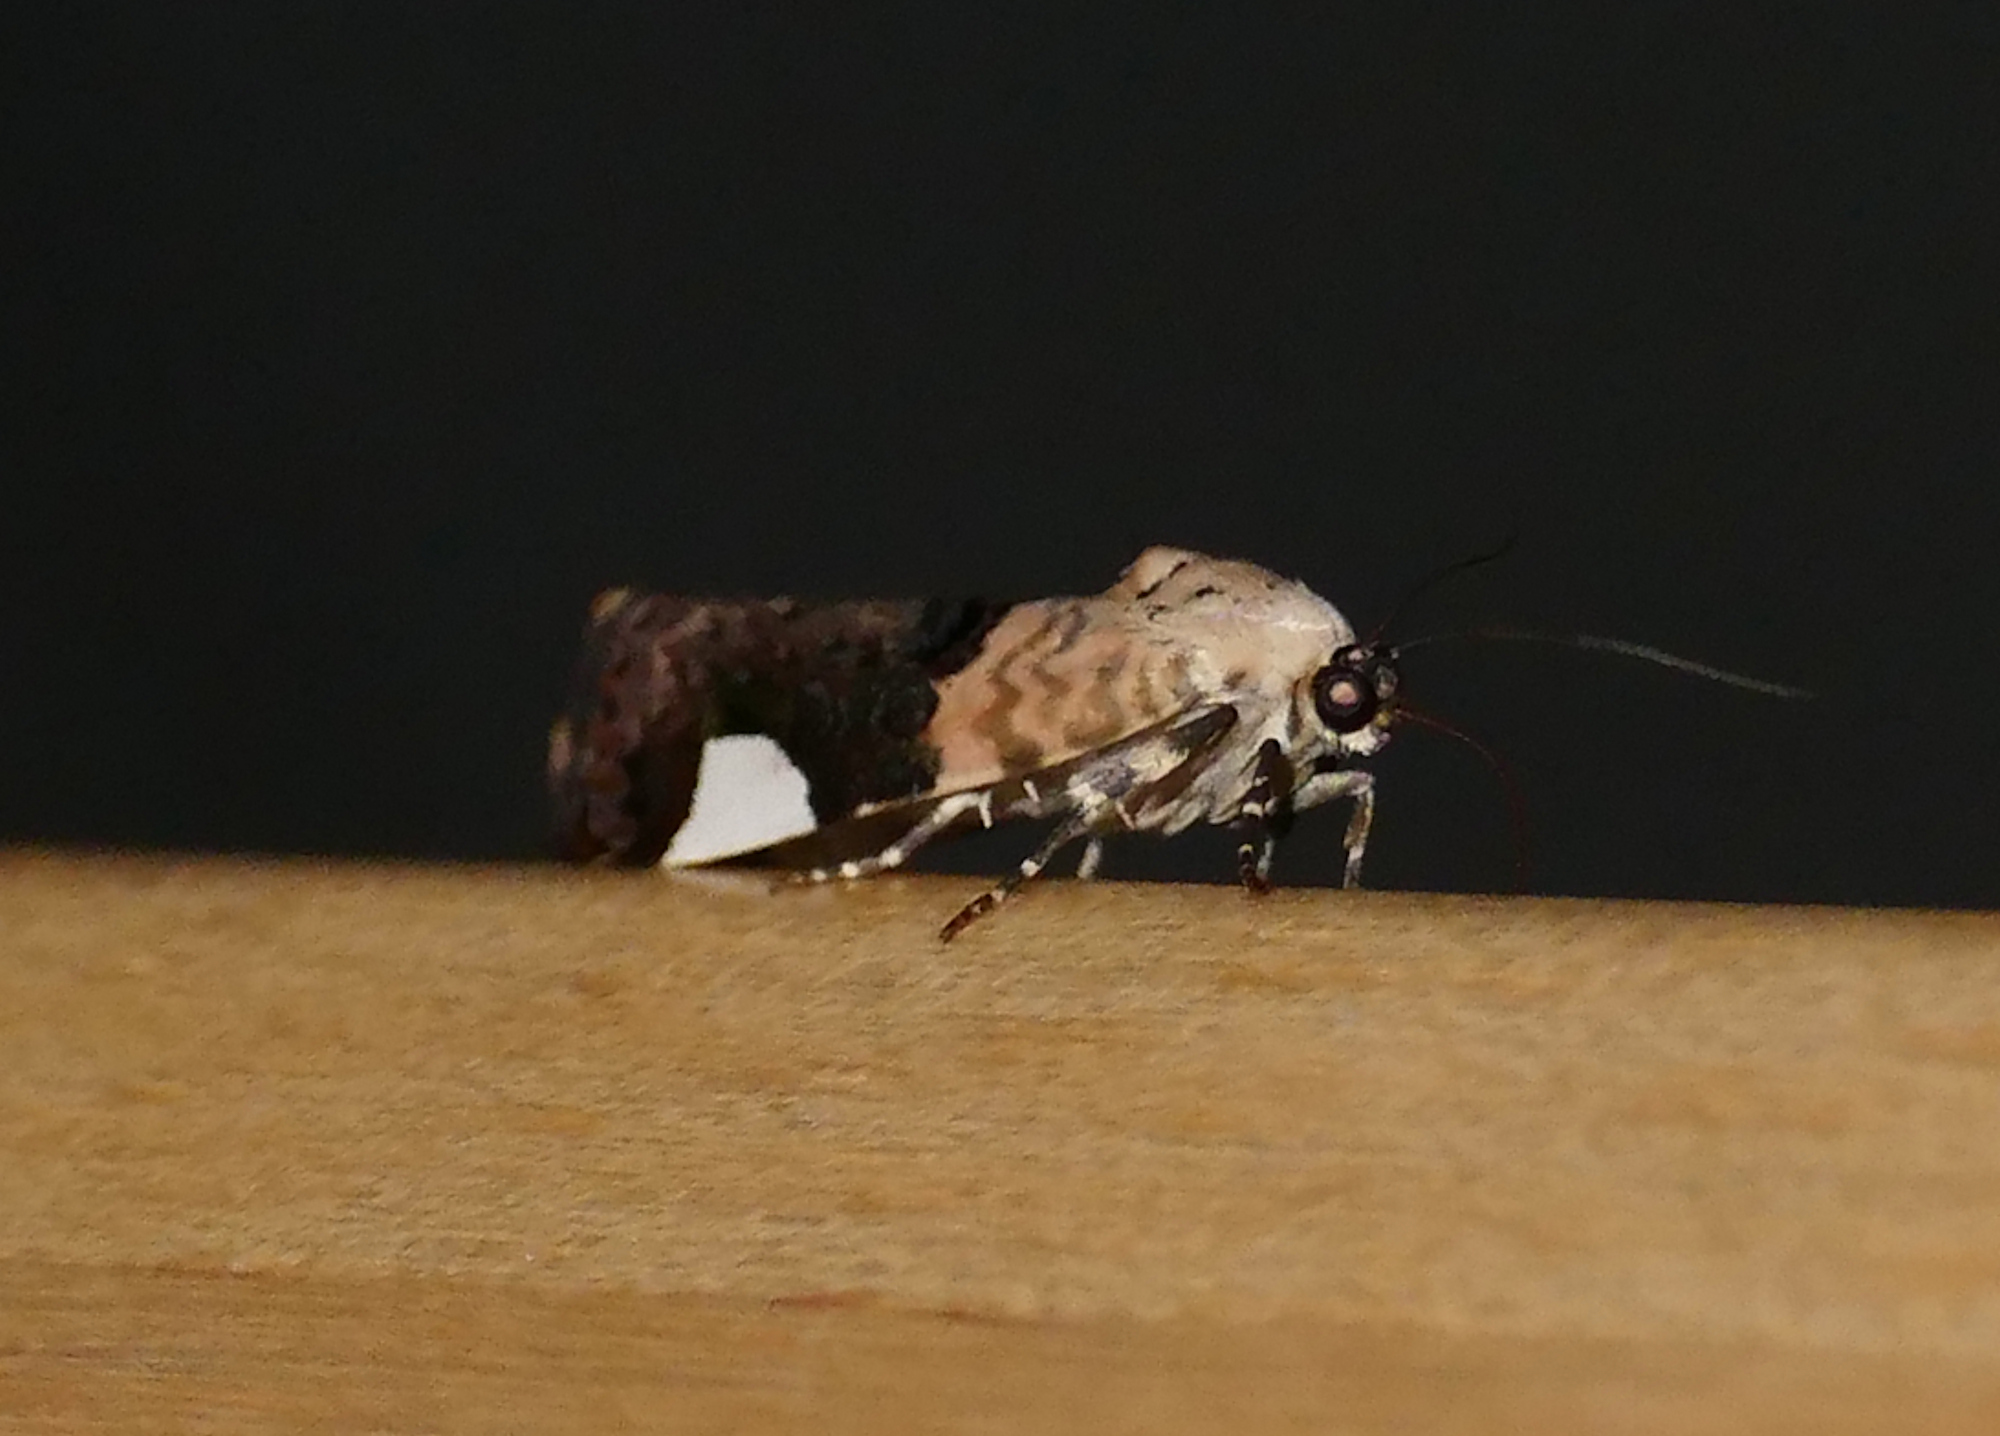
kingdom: Animalia
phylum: Arthropoda
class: Insecta
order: Lepidoptera
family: Noctuidae
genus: Acontia
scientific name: Acontia Tarache areloides
